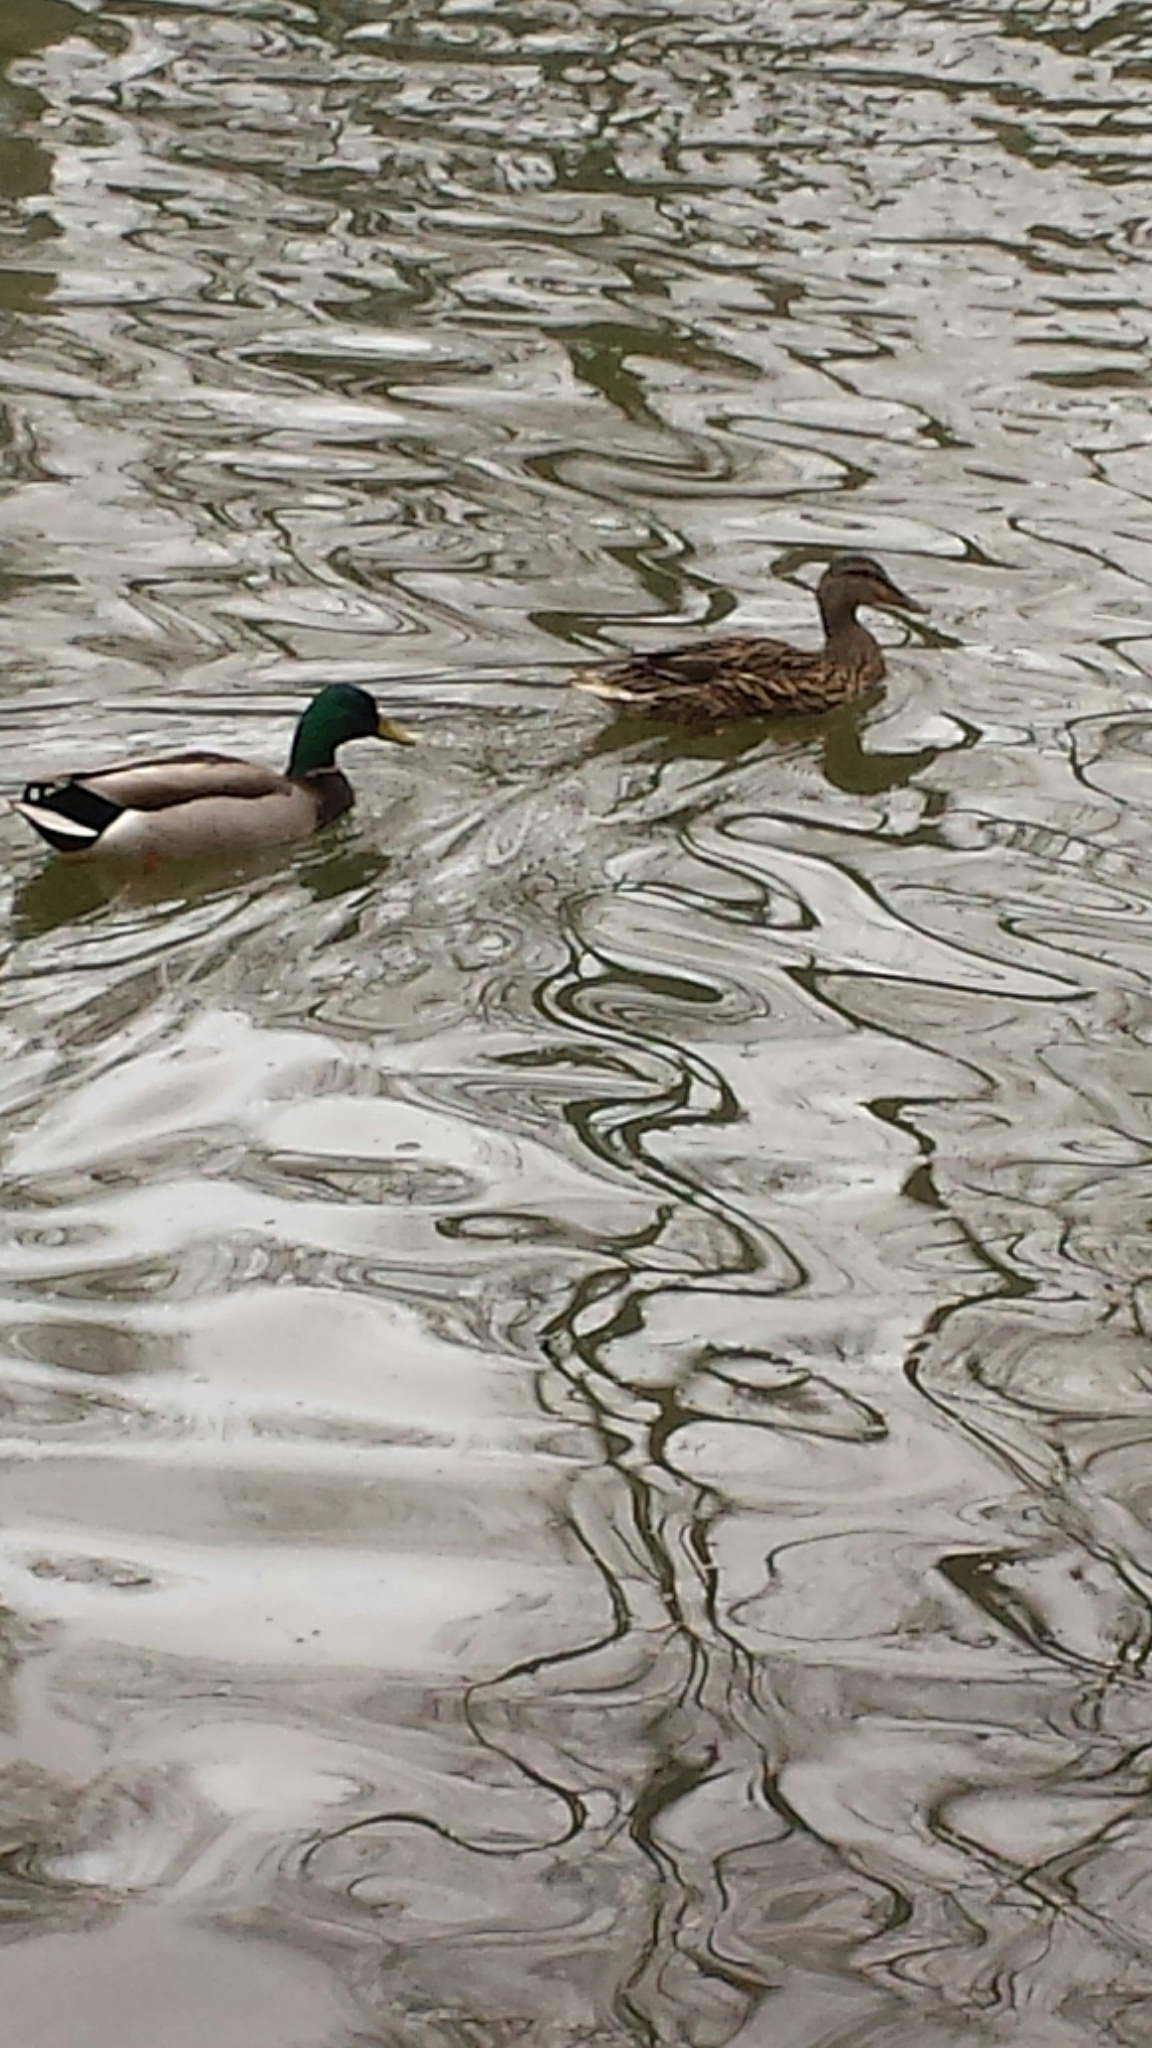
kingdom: Animalia
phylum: Chordata
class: Aves
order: Anseriformes
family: Anatidae
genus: Anas
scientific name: Anas platyrhynchos
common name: Mallard
